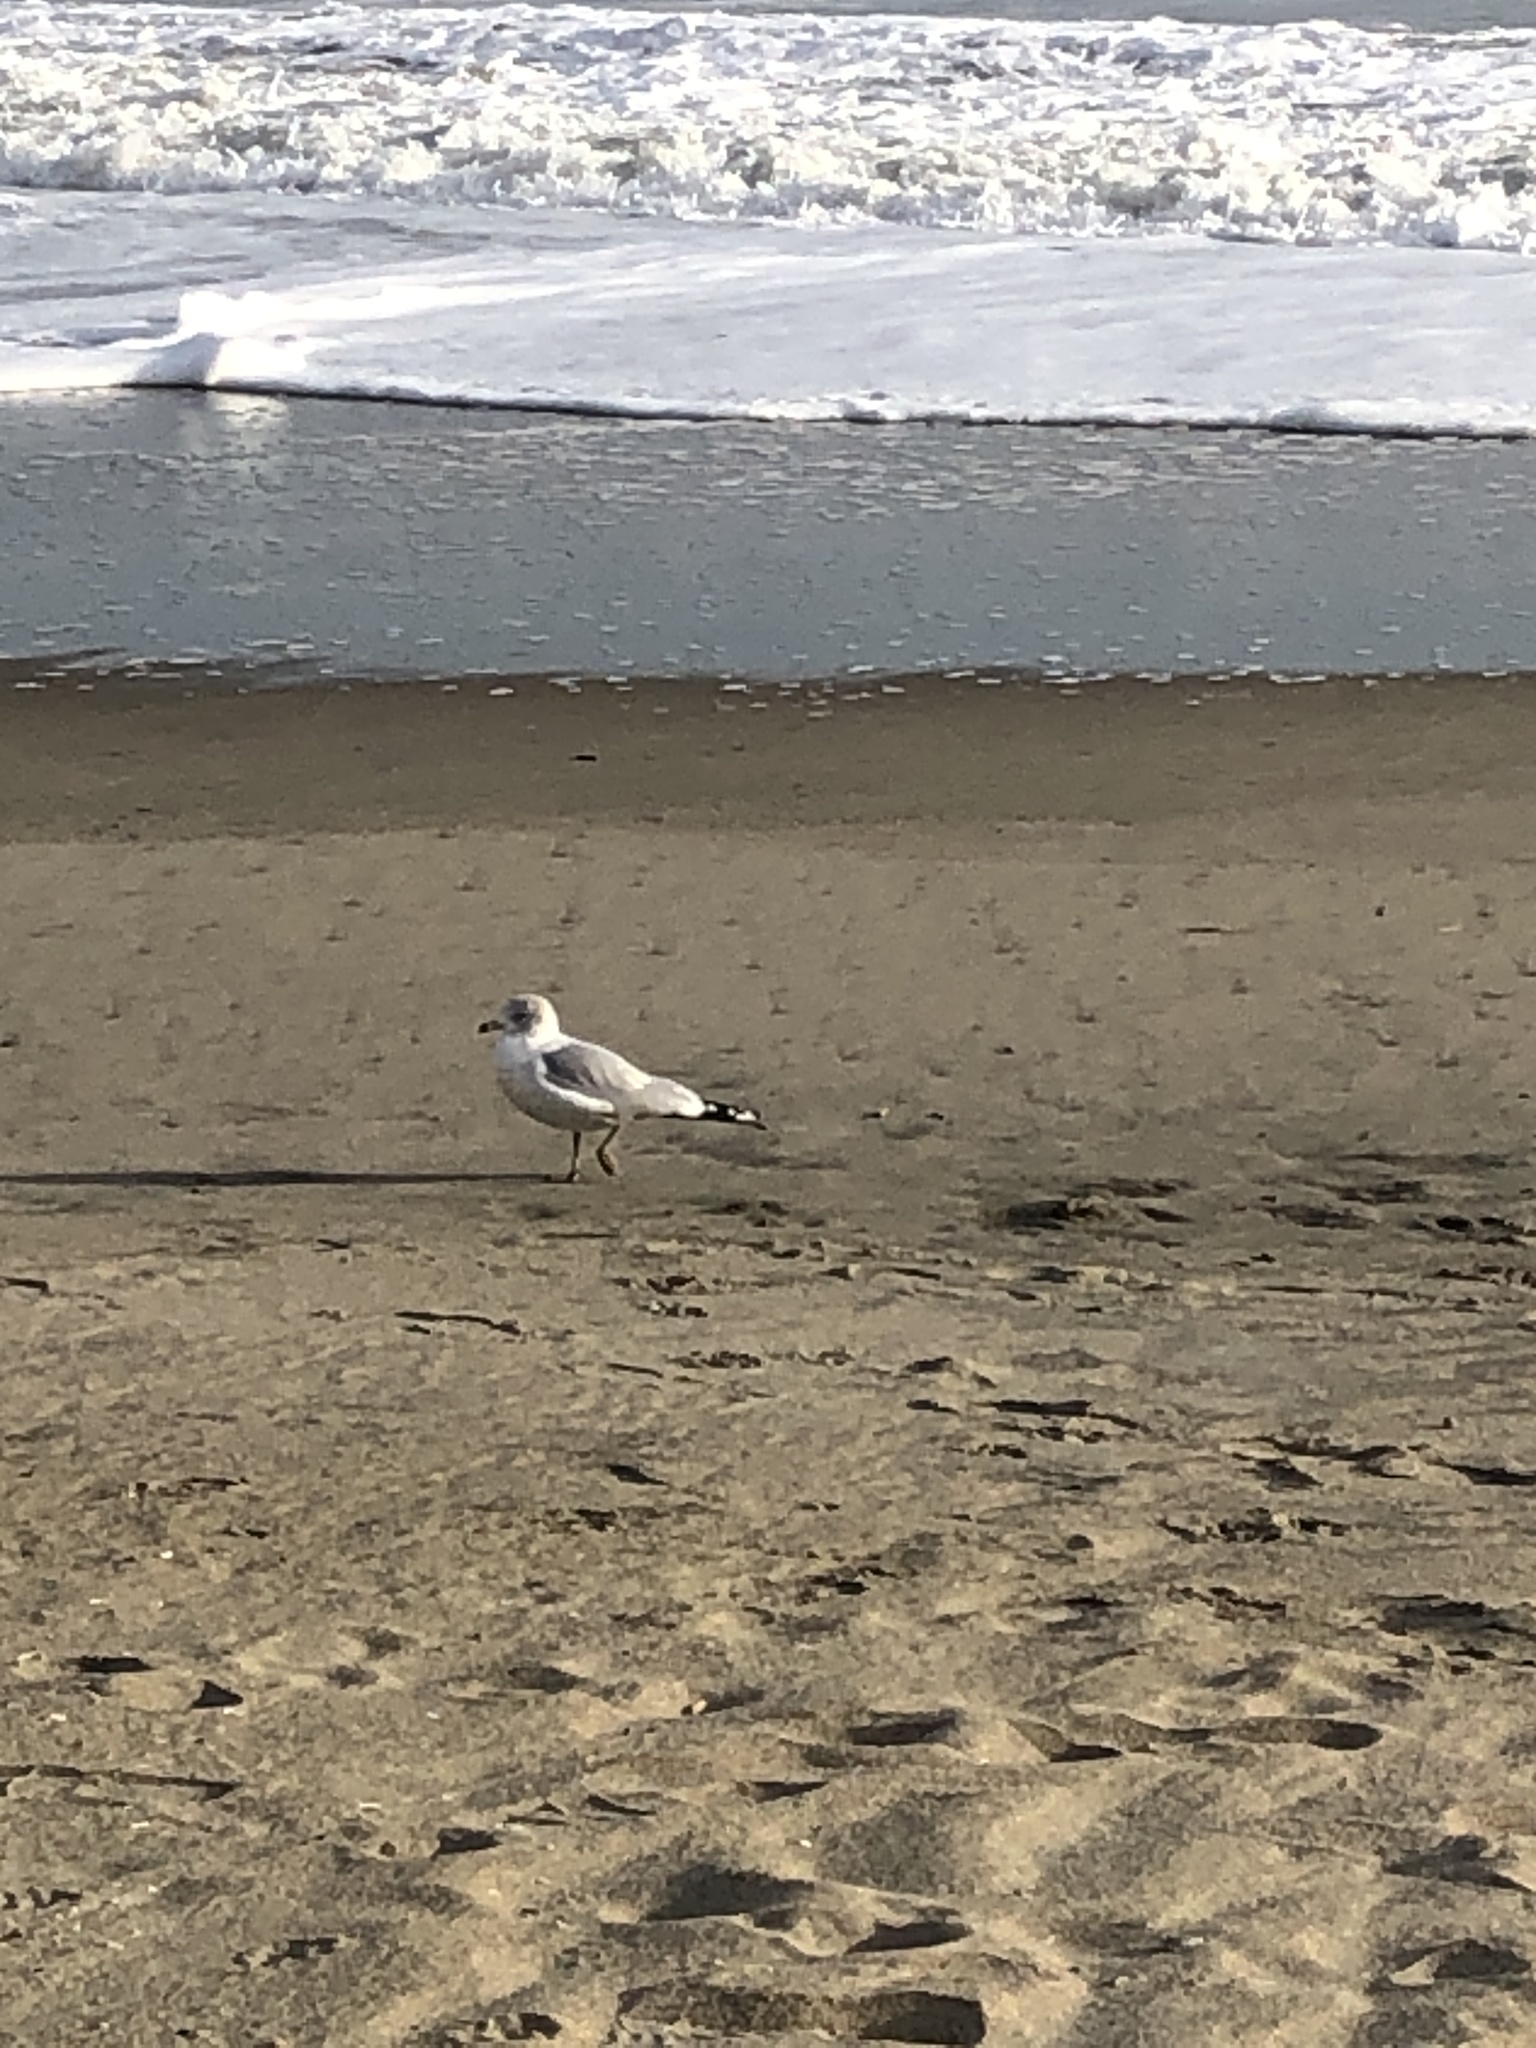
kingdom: Animalia
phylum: Chordata
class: Aves
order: Charadriiformes
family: Laridae
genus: Larus
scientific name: Larus delawarensis
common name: Ring-billed gull
